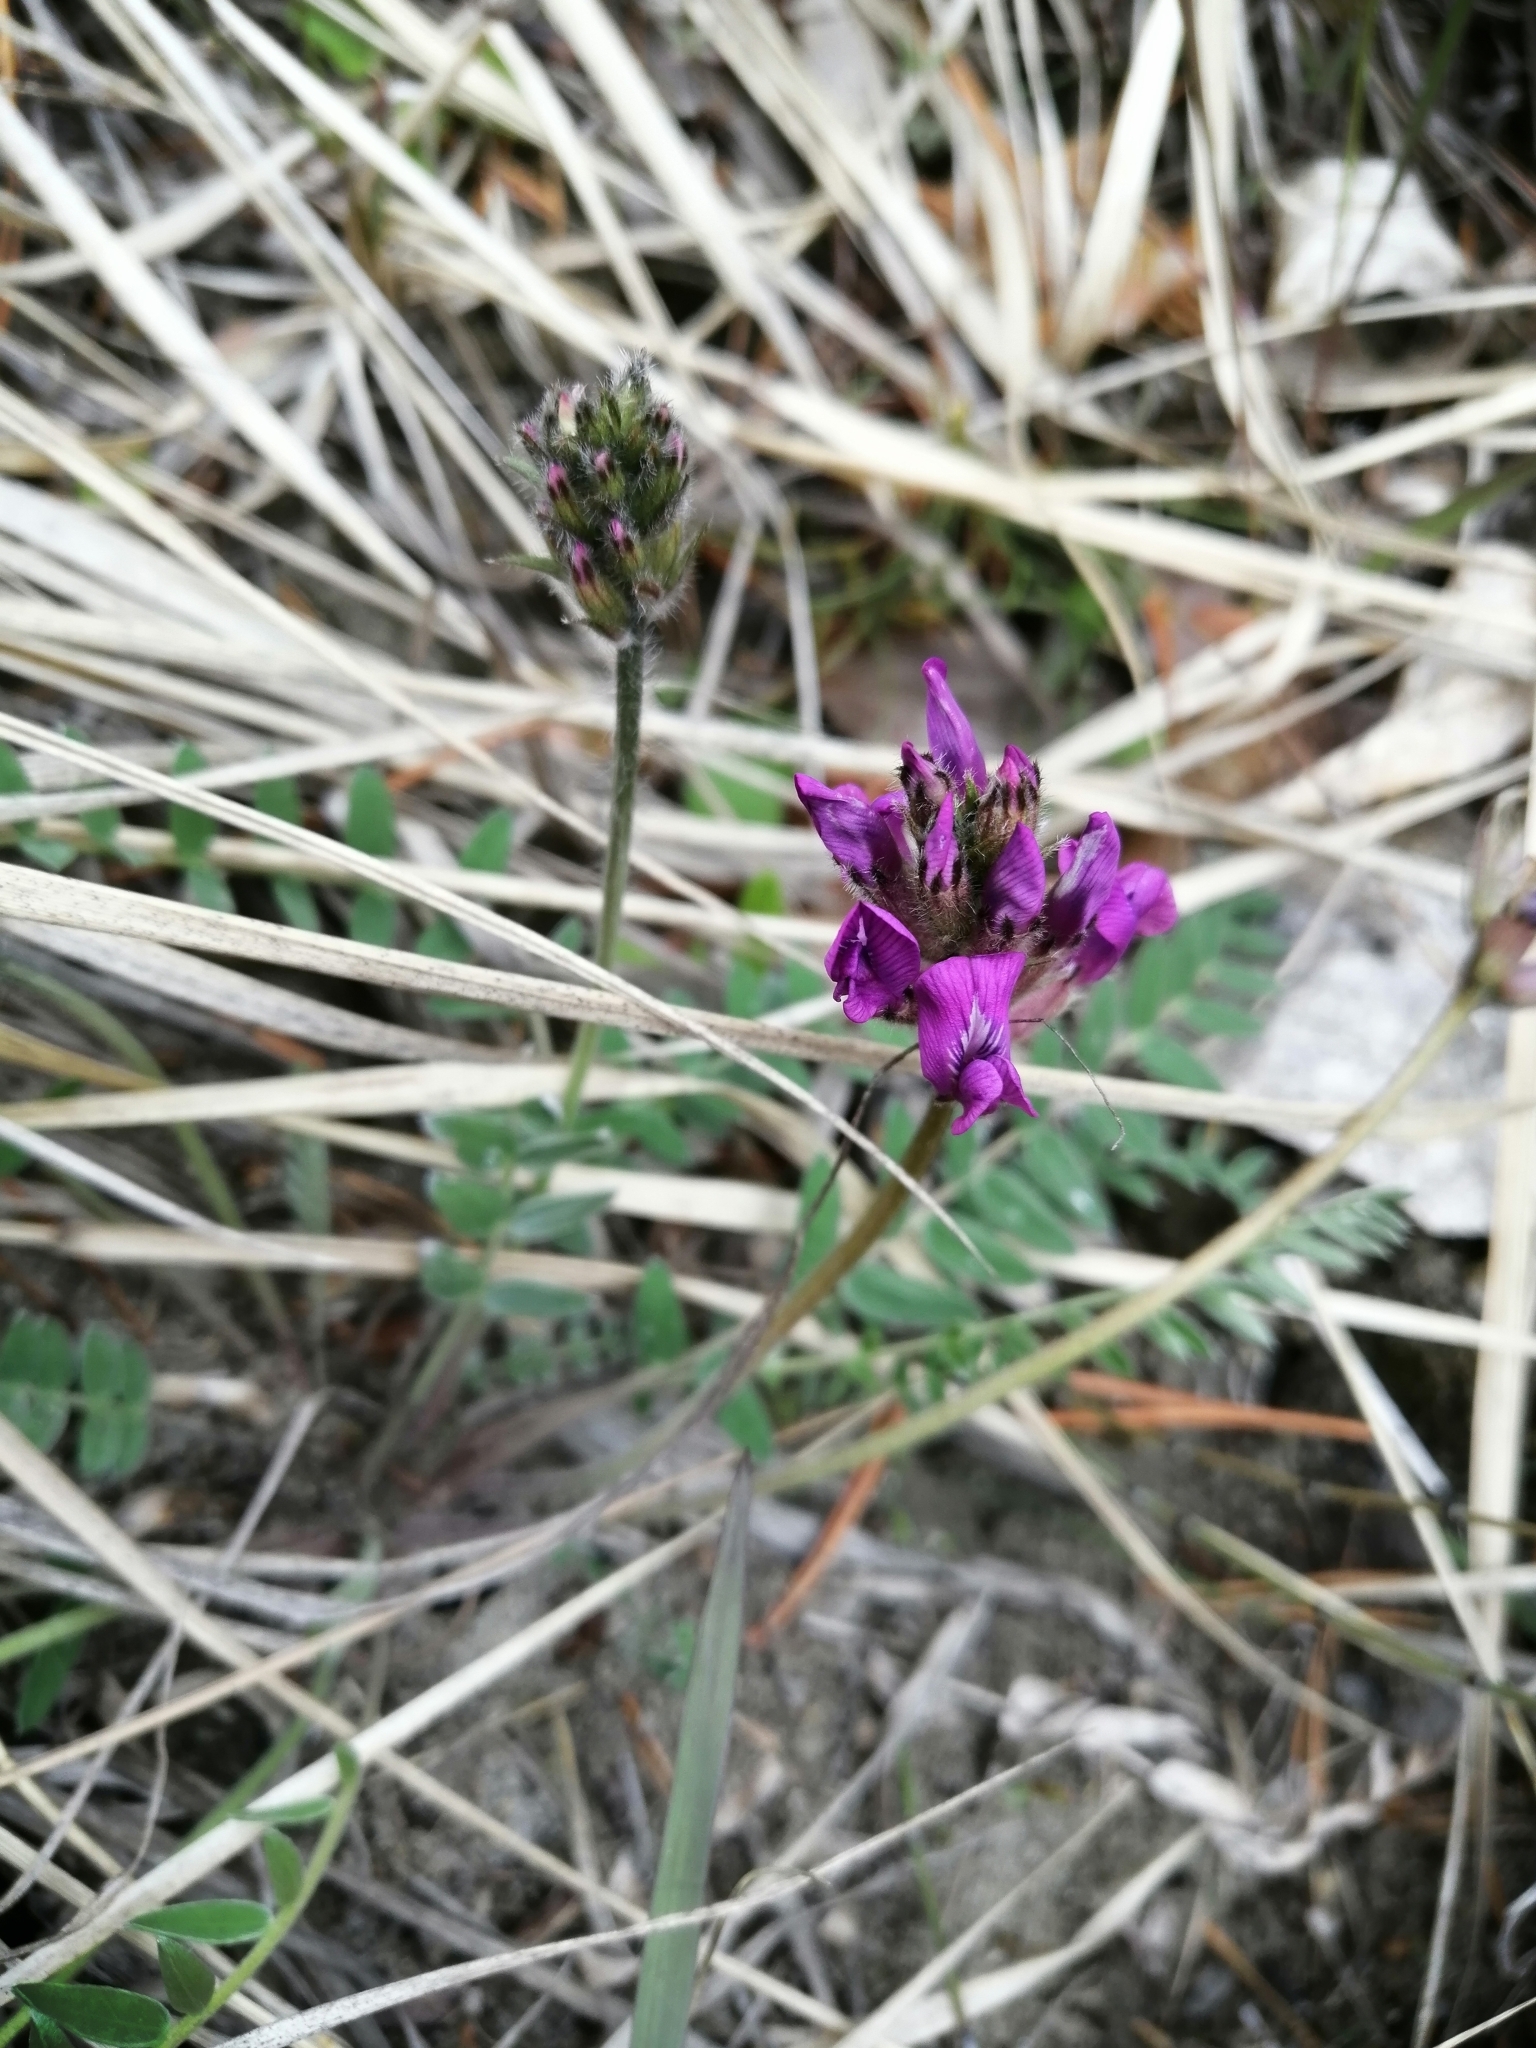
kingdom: Plantae
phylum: Tracheophyta
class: Magnoliopsida
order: Fabales
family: Fabaceae
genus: Oxytropis
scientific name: Oxytropis strobilacea
